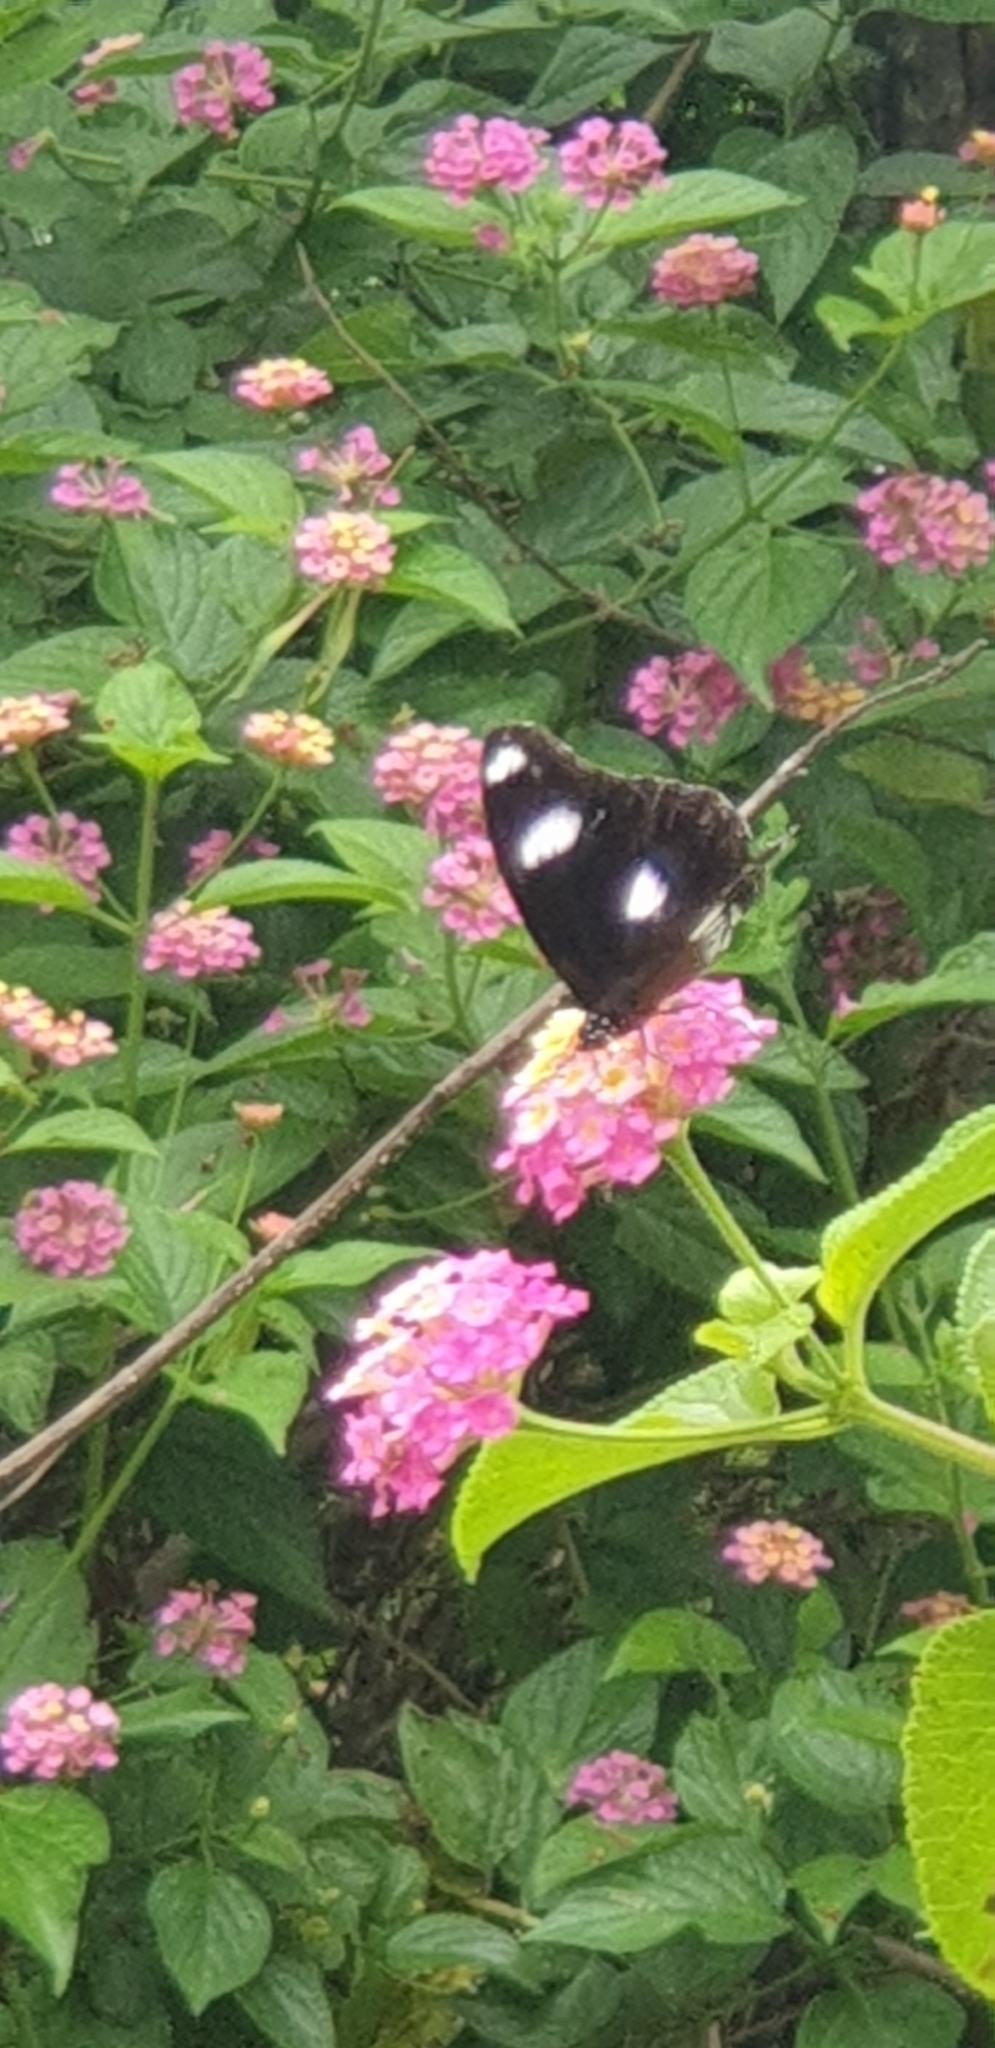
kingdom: Animalia
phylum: Arthropoda
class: Insecta
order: Lepidoptera
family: Nymphalidae
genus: Hypolimnas
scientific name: Hypolimnas bolina
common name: Great eggfly
